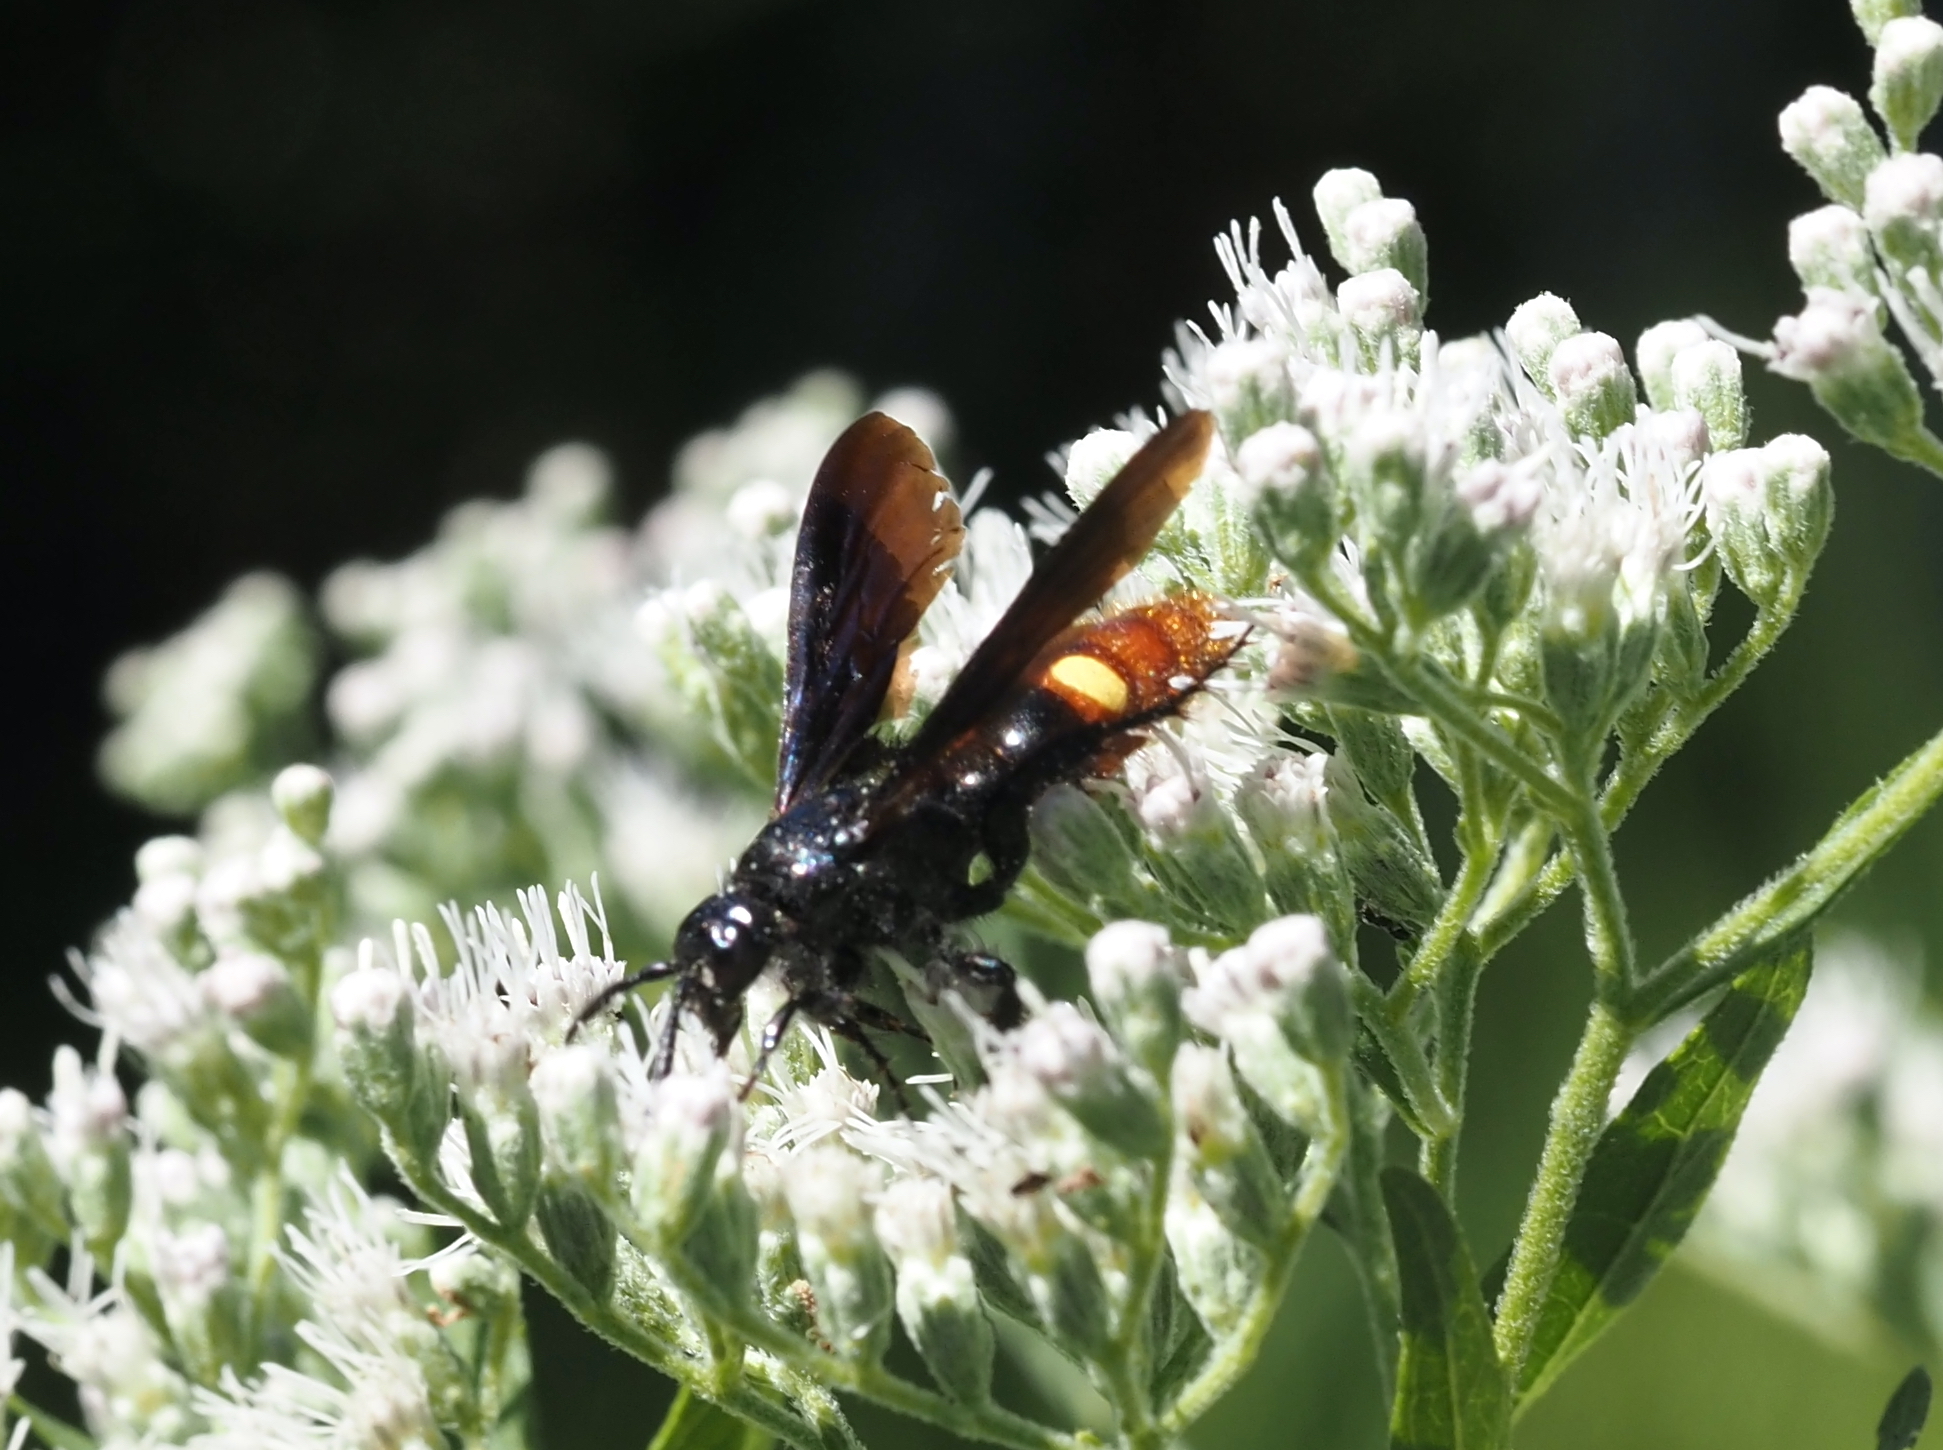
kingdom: Animalia
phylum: Arthropoda
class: Insecta
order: Hymenoptera
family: Scoliidae
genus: Scolia
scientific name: Scolia dubia
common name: Blue-winged scoliid wasp
